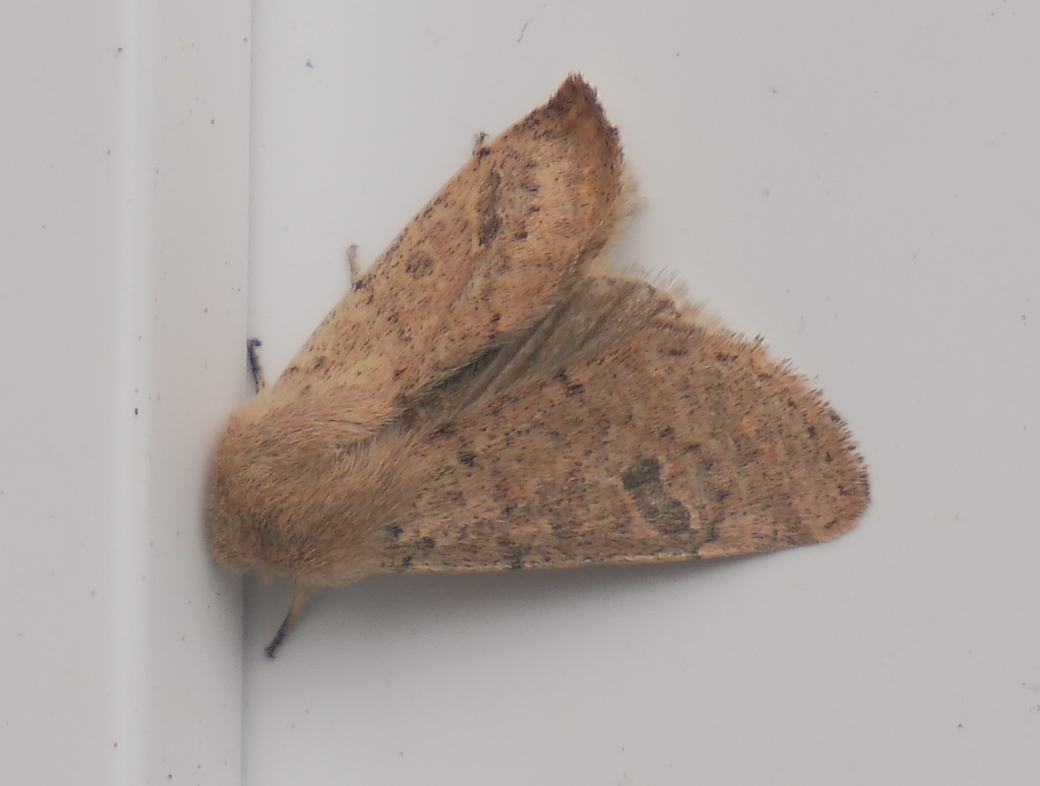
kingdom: Animalia
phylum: Arthropoda
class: Insecta
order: Lepidoptera
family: Noctuidae
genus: Orthosia
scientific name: Orthosia cruda
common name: Small quaker
